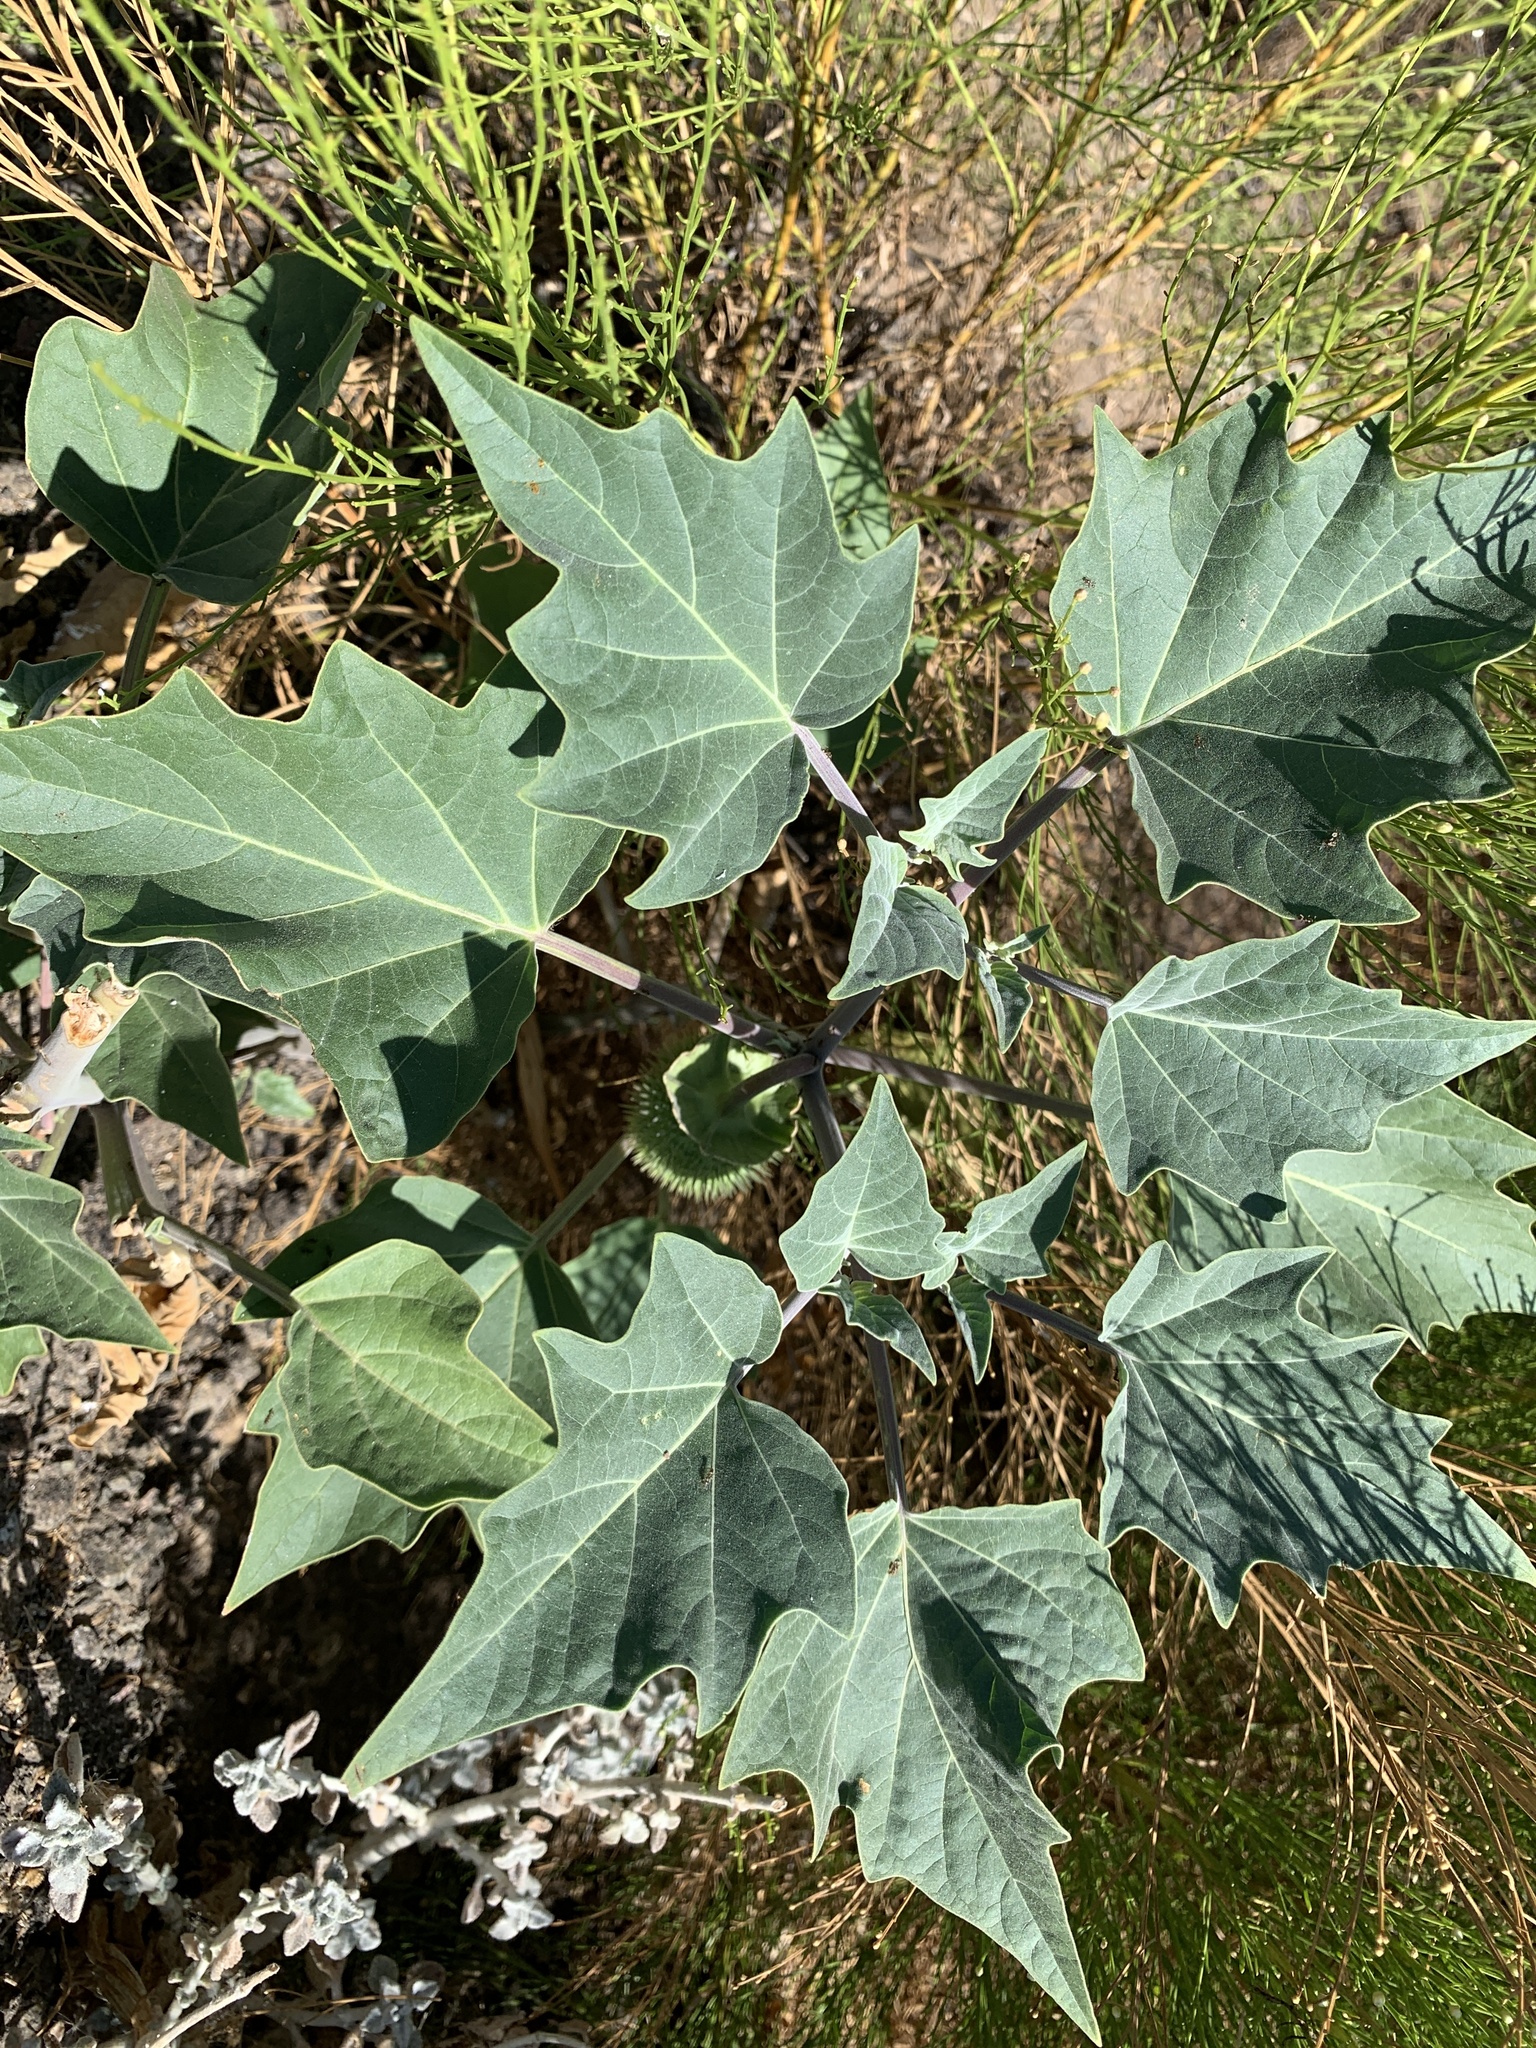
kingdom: Plantae
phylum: Tracheophyta
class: Magnoliopsida
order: Solanales
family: Solanaceae
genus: Datura
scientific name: Datura wrightii
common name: Sacred thorn-apple
